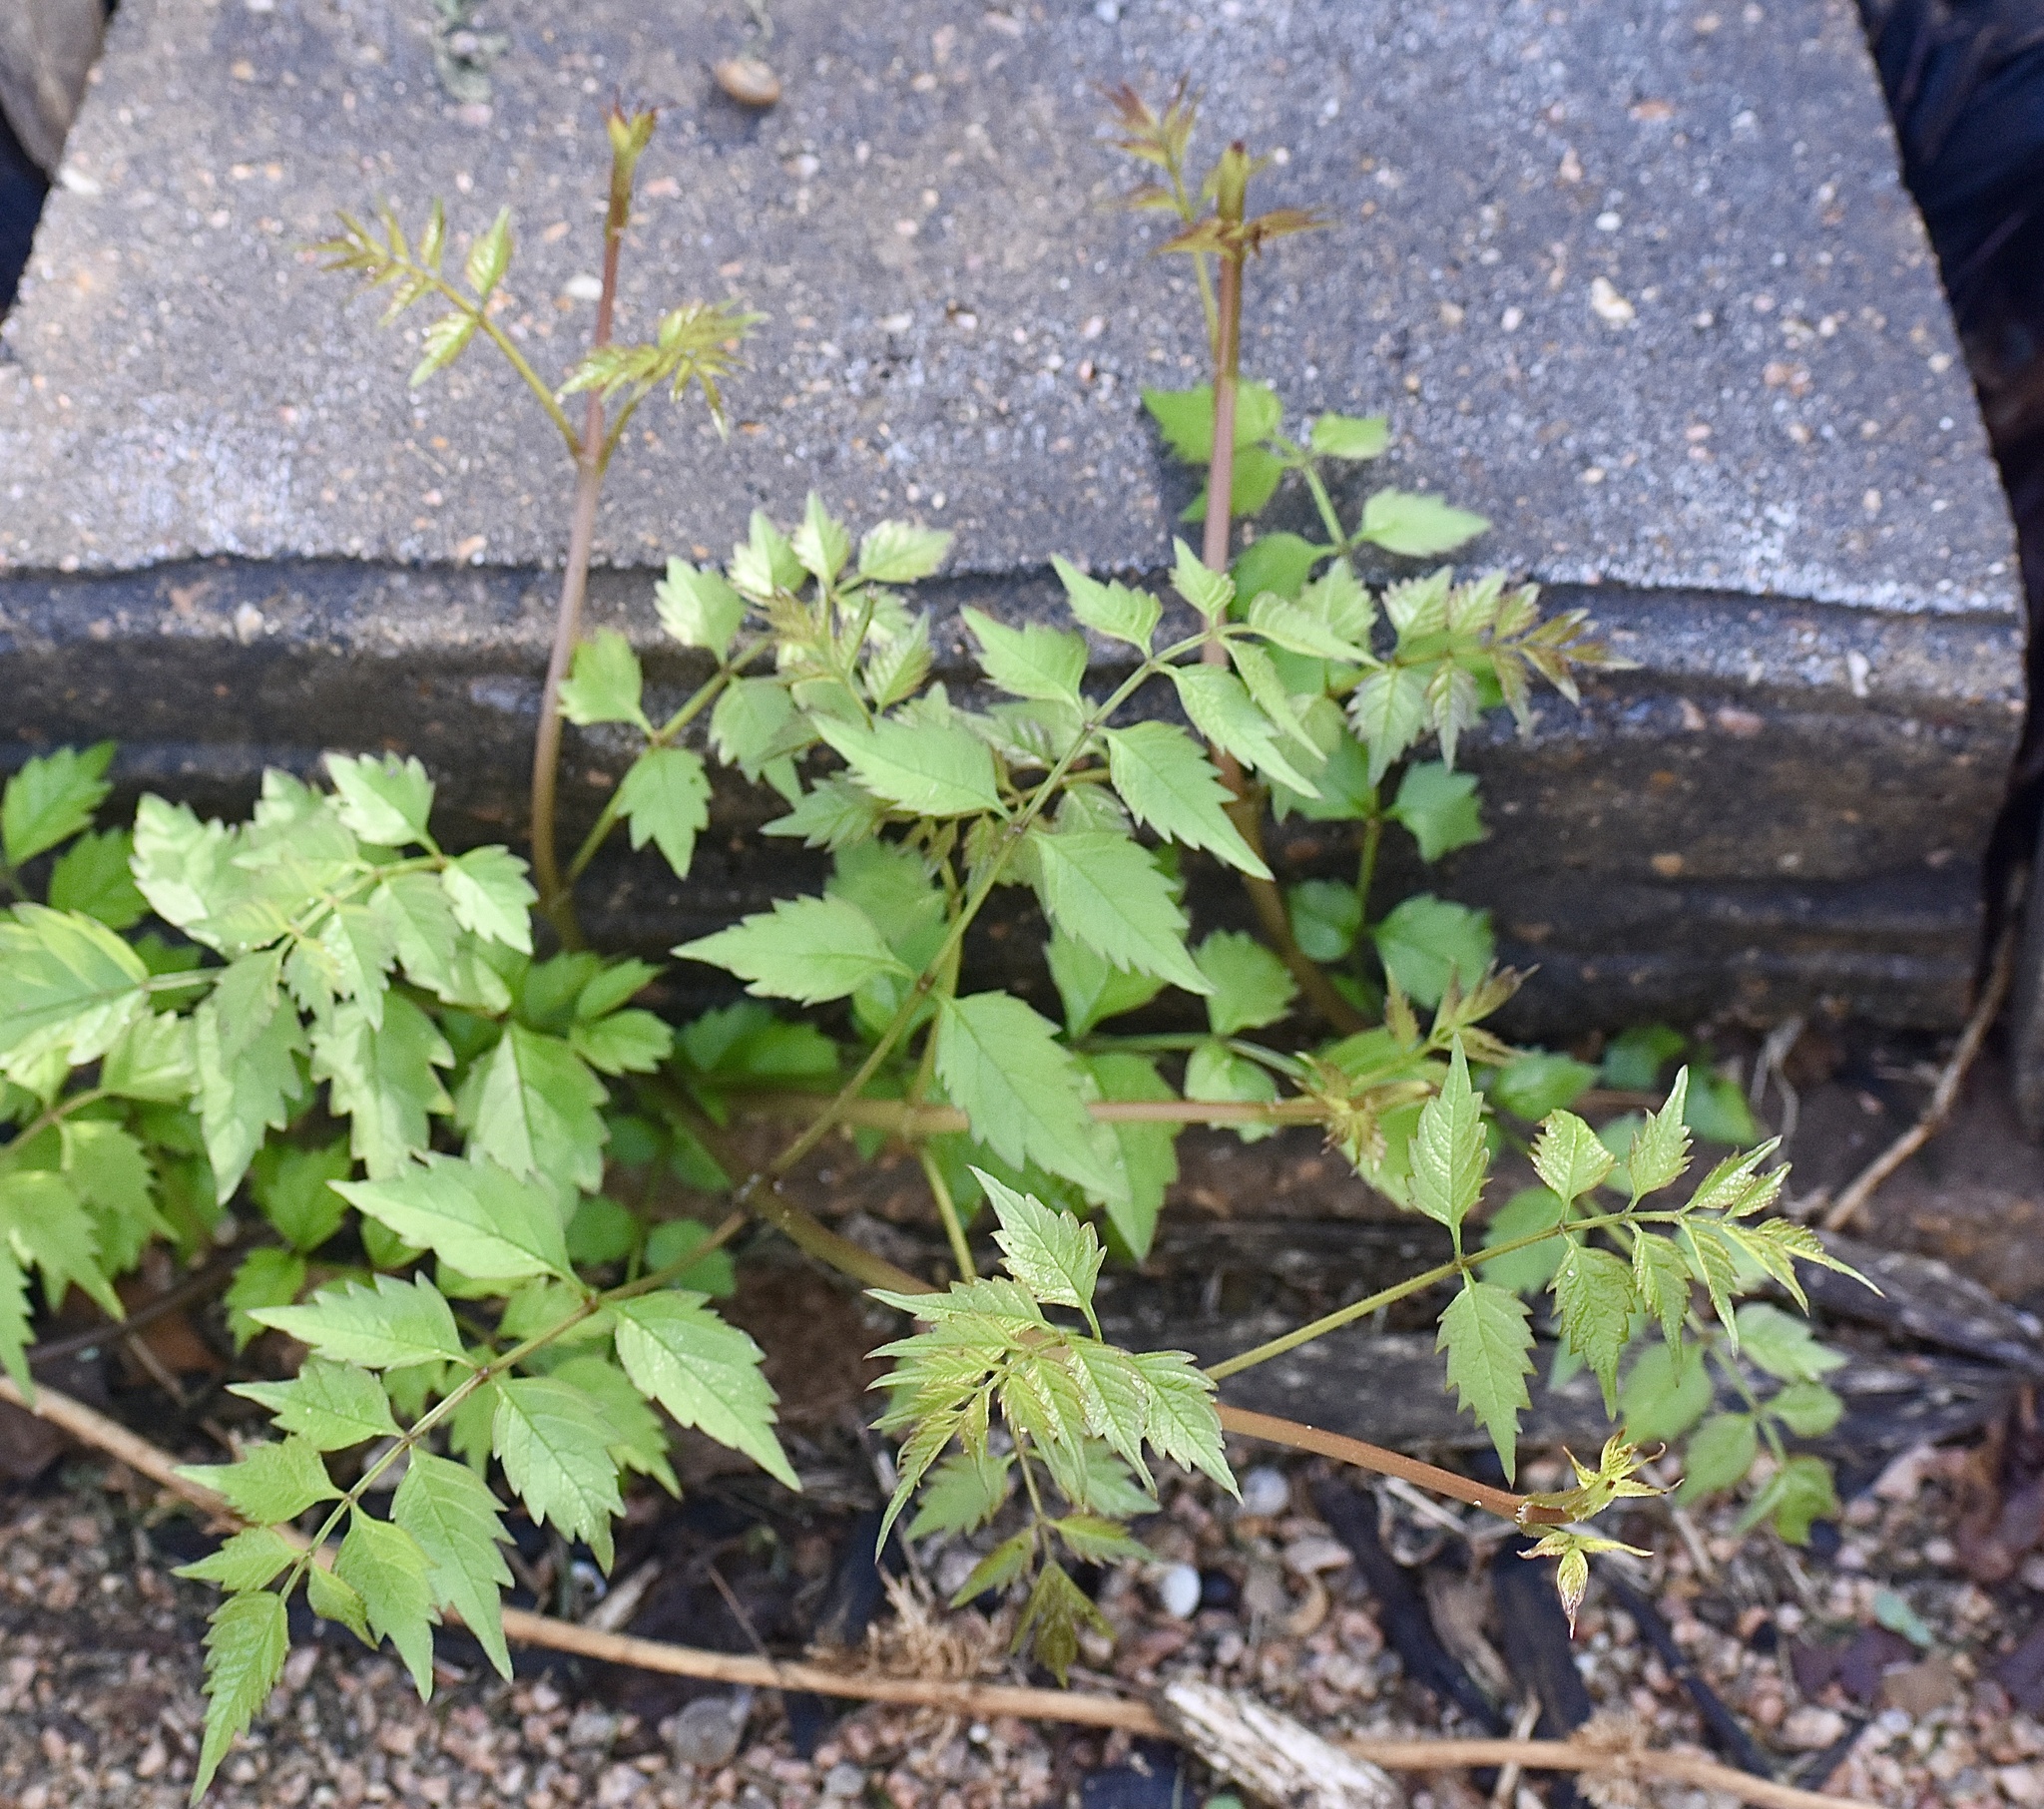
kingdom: Plantae
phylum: Tracheophyta
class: Magnoliopsida
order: Lamiales
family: Bignoniaceae
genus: Campsis
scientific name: Campsis radicans
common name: Trumpet-creeper
